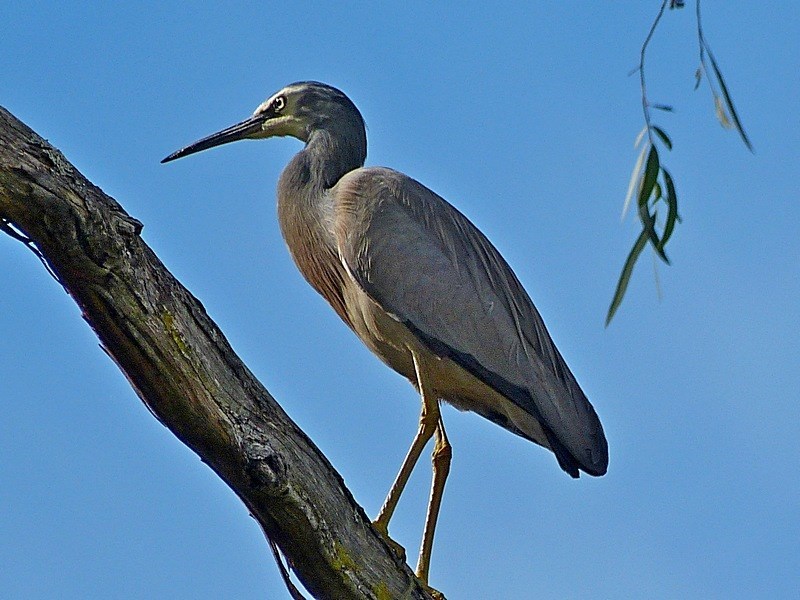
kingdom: Animalia
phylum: Chordata
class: Aves
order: Pelecaniformes
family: Ardeidae
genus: Egretta
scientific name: Egretta novaehollandiae
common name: White-faced heron
